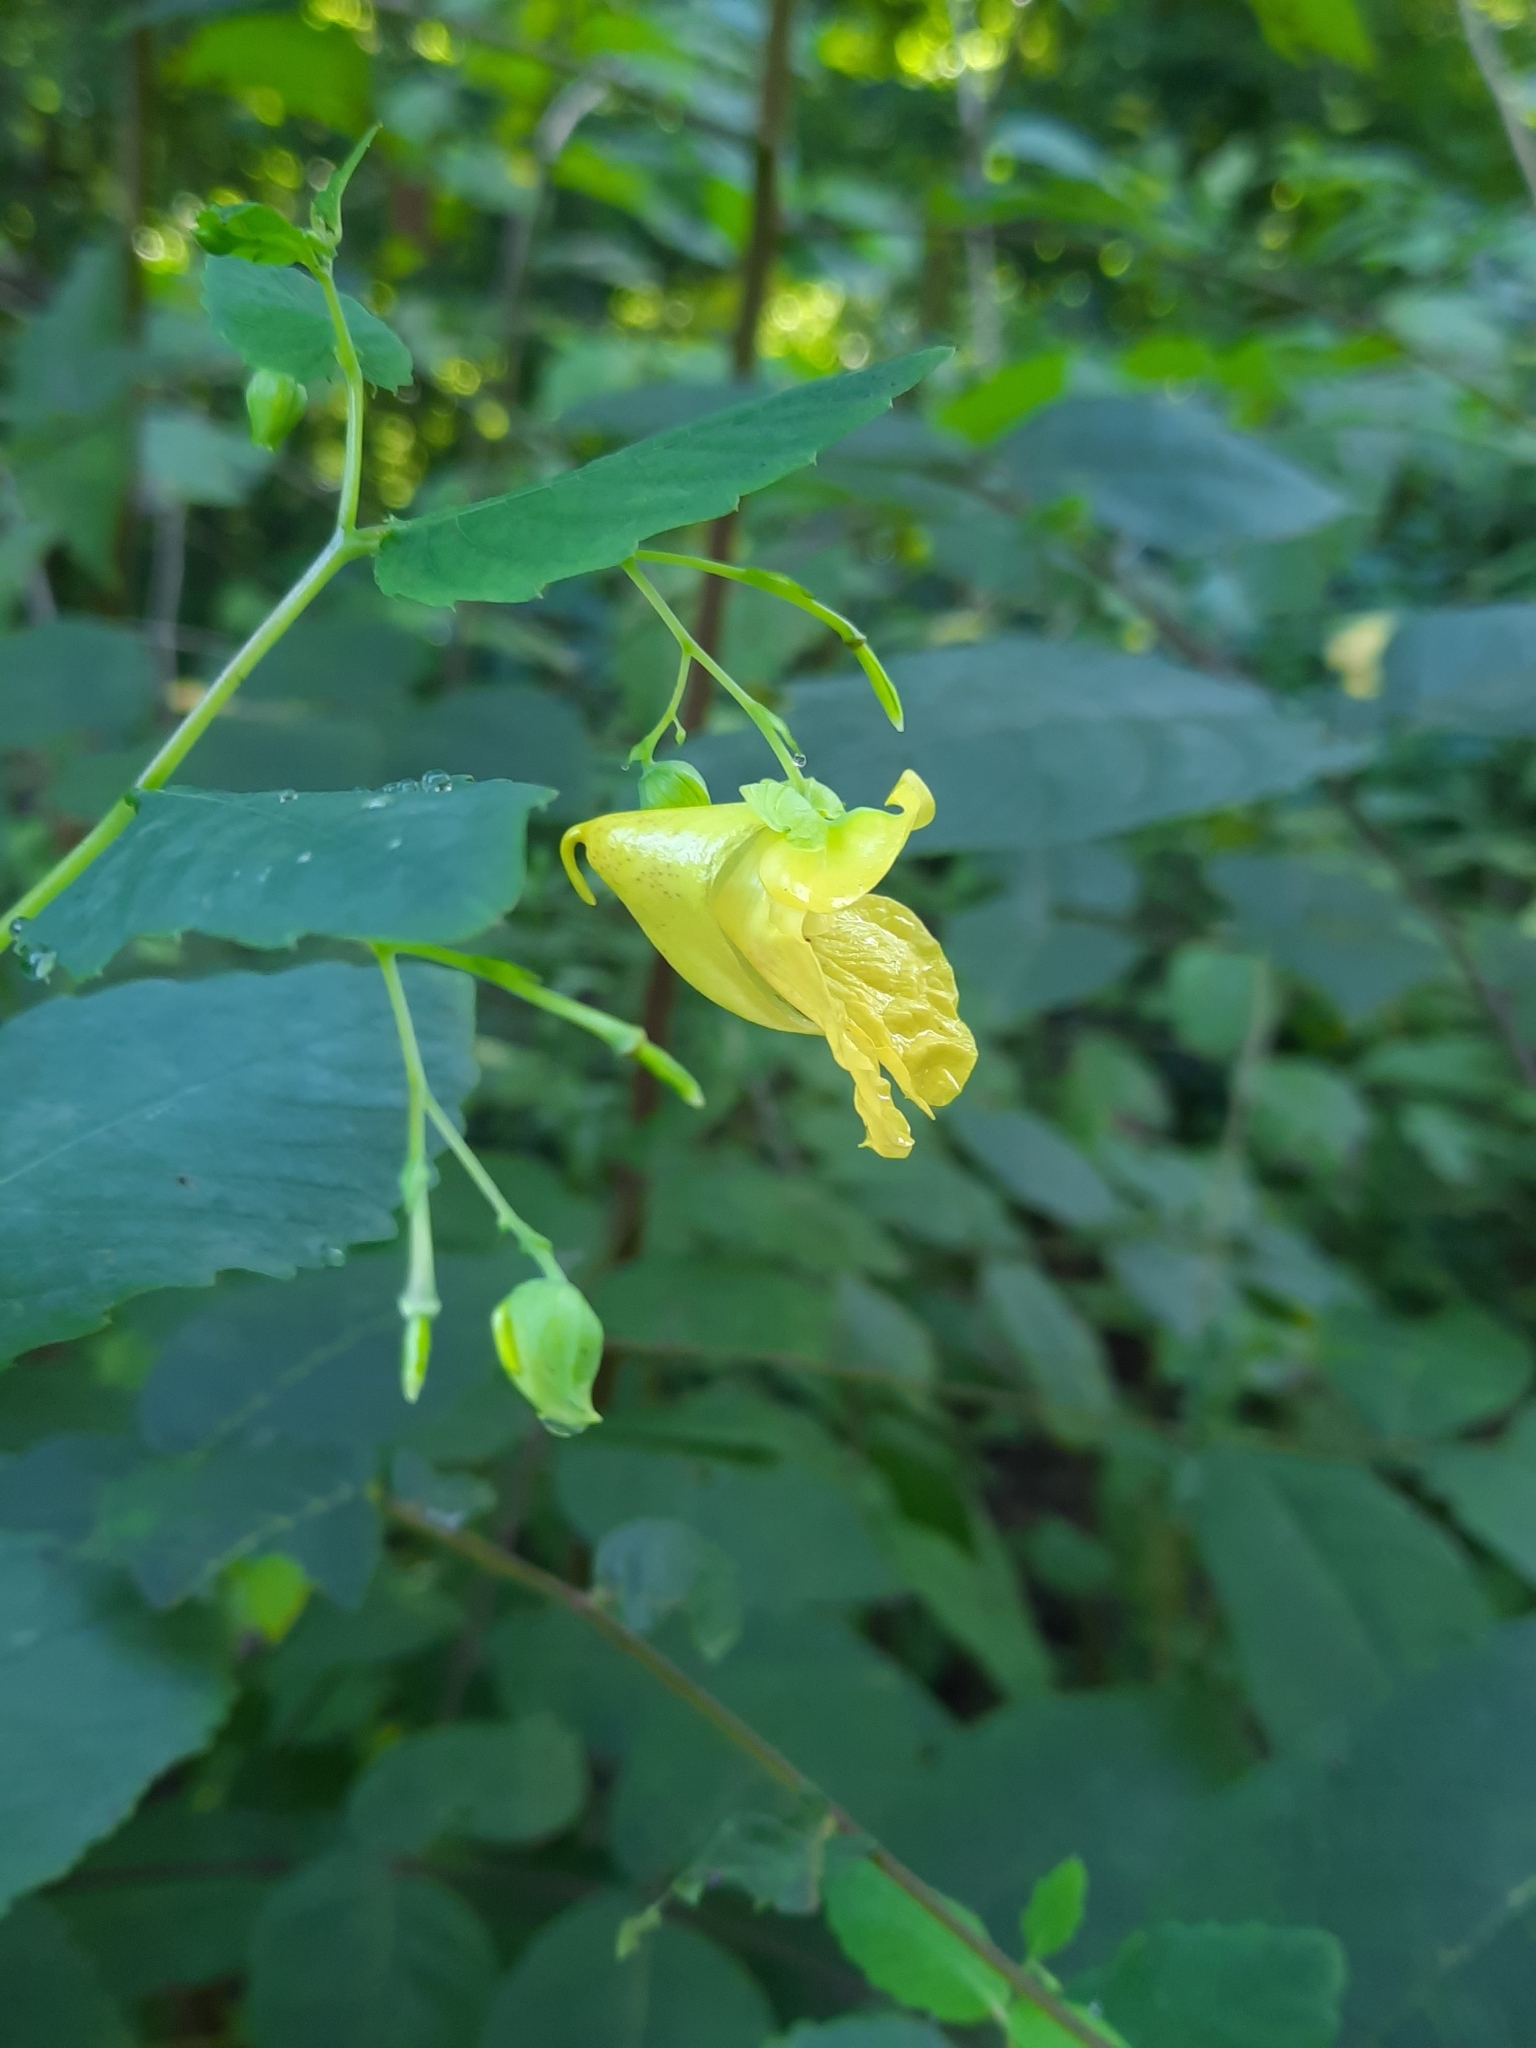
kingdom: Plantae
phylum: Tracheophyta
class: Magnoliopsida
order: Ericales
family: Balsaminaceae
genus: Impatiens
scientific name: Impatiens pallida
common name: Pale snapweed
